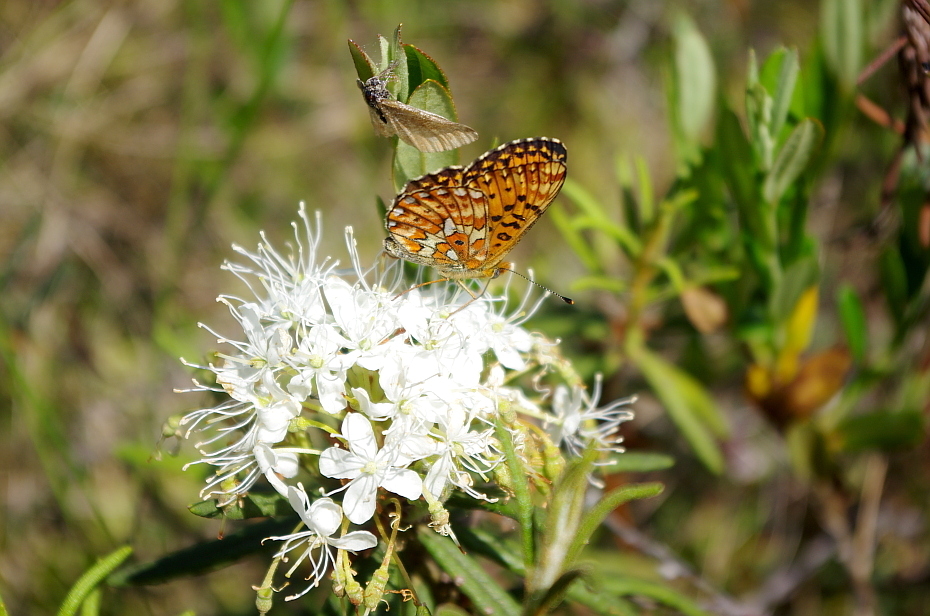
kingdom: Plantae
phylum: Tracheophyta
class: Magnoliopsida
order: Ericales
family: Ericaceae
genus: Rhododendron
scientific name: Rhododendron tomentosum
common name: Marsh labrador tea
